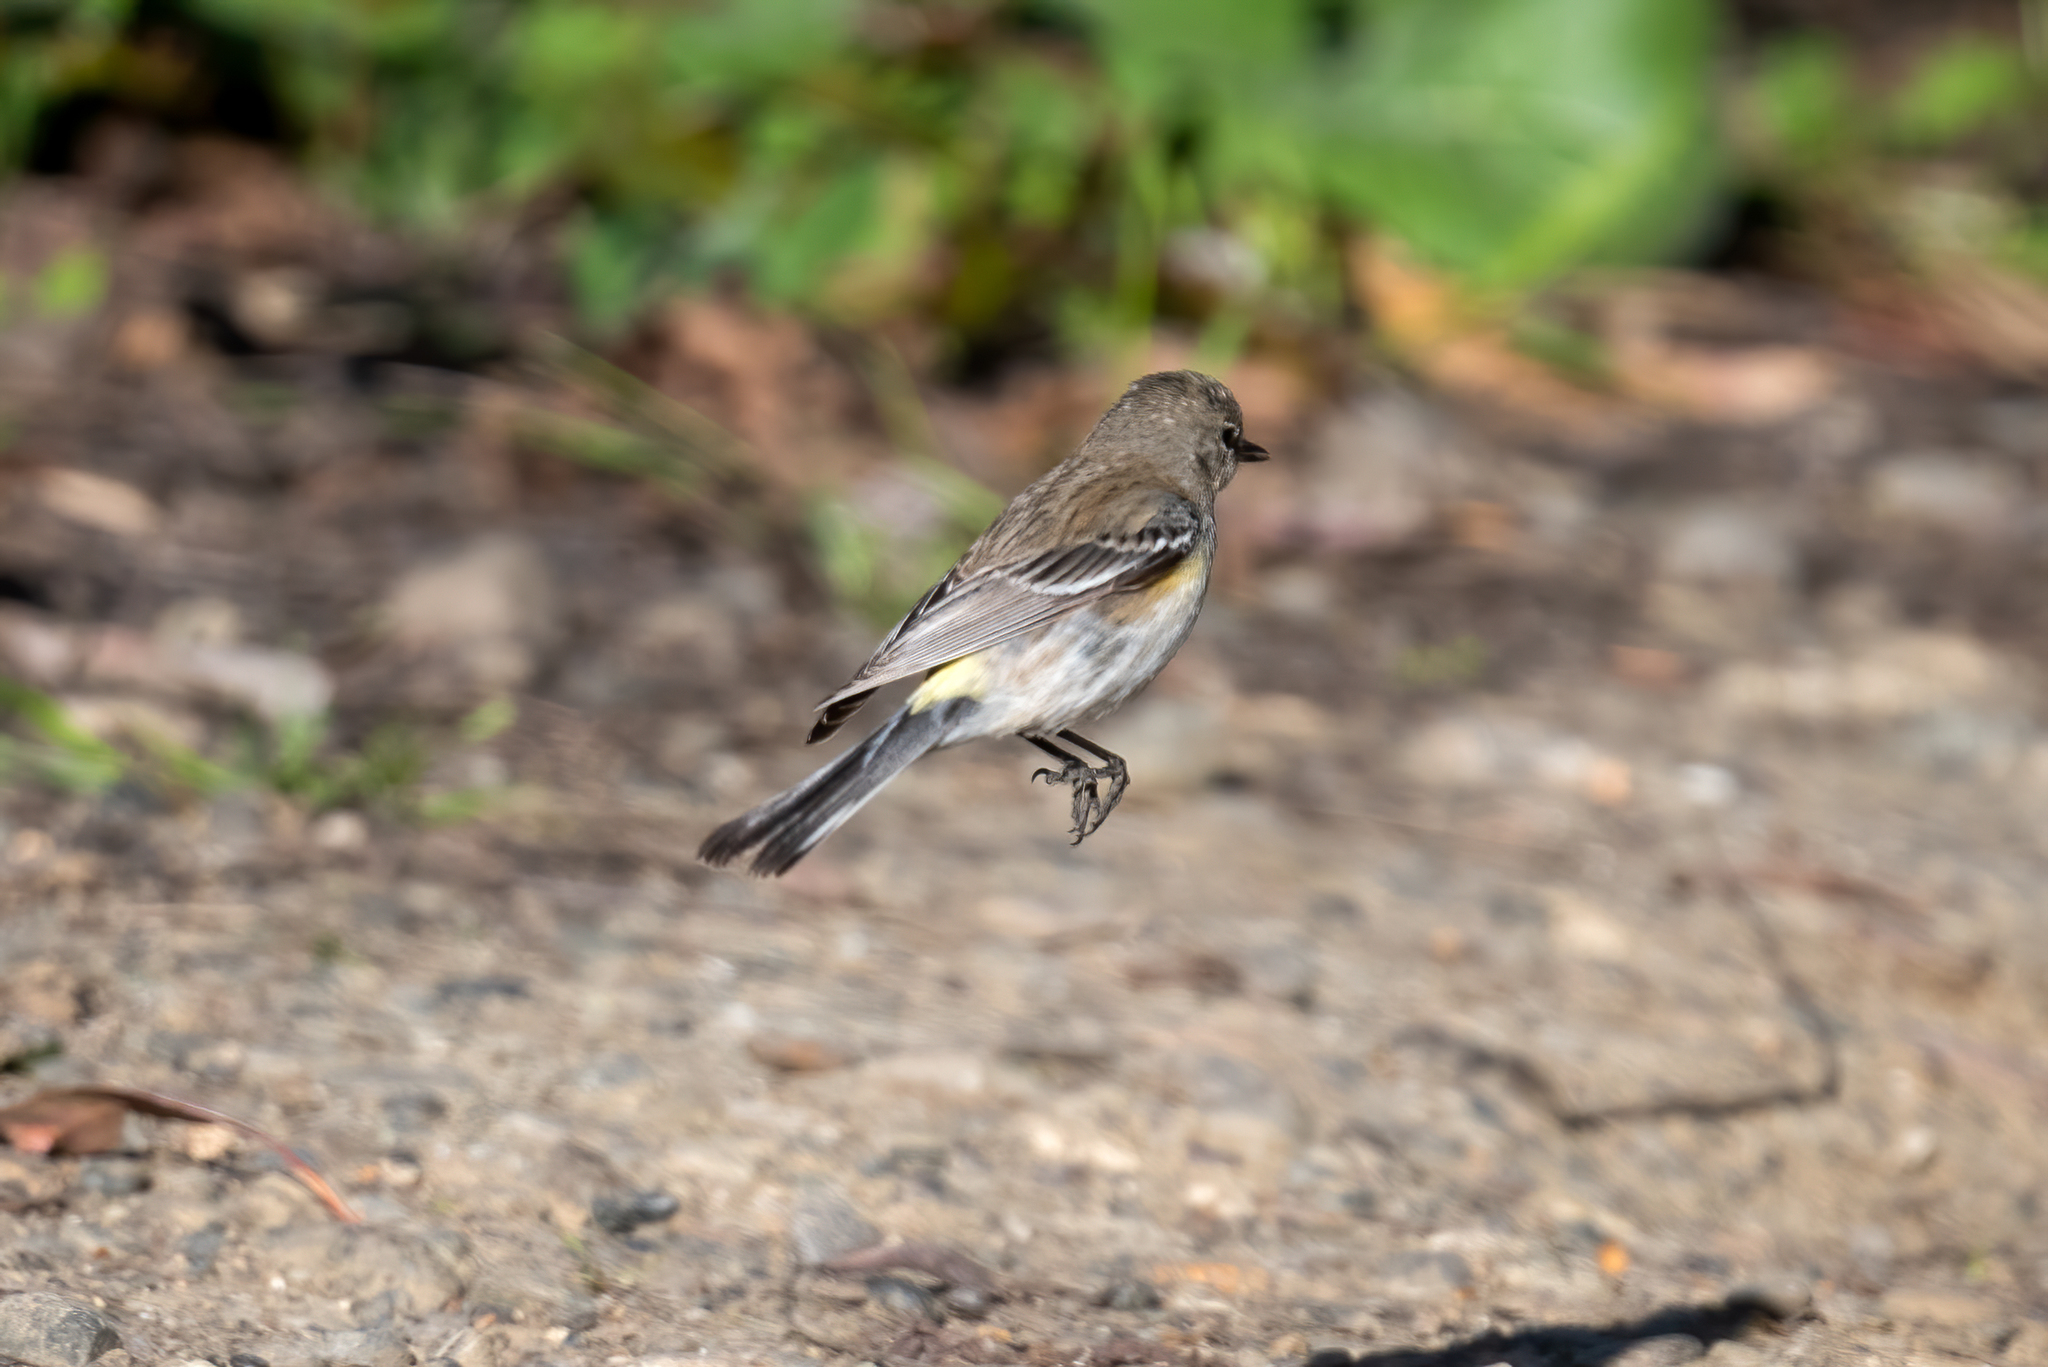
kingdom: Animalia
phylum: Chordata
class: Aves
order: Passeriformes
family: Parulidae
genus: Setophaga
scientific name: Setophaga coronata
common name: Myrtle warbler
